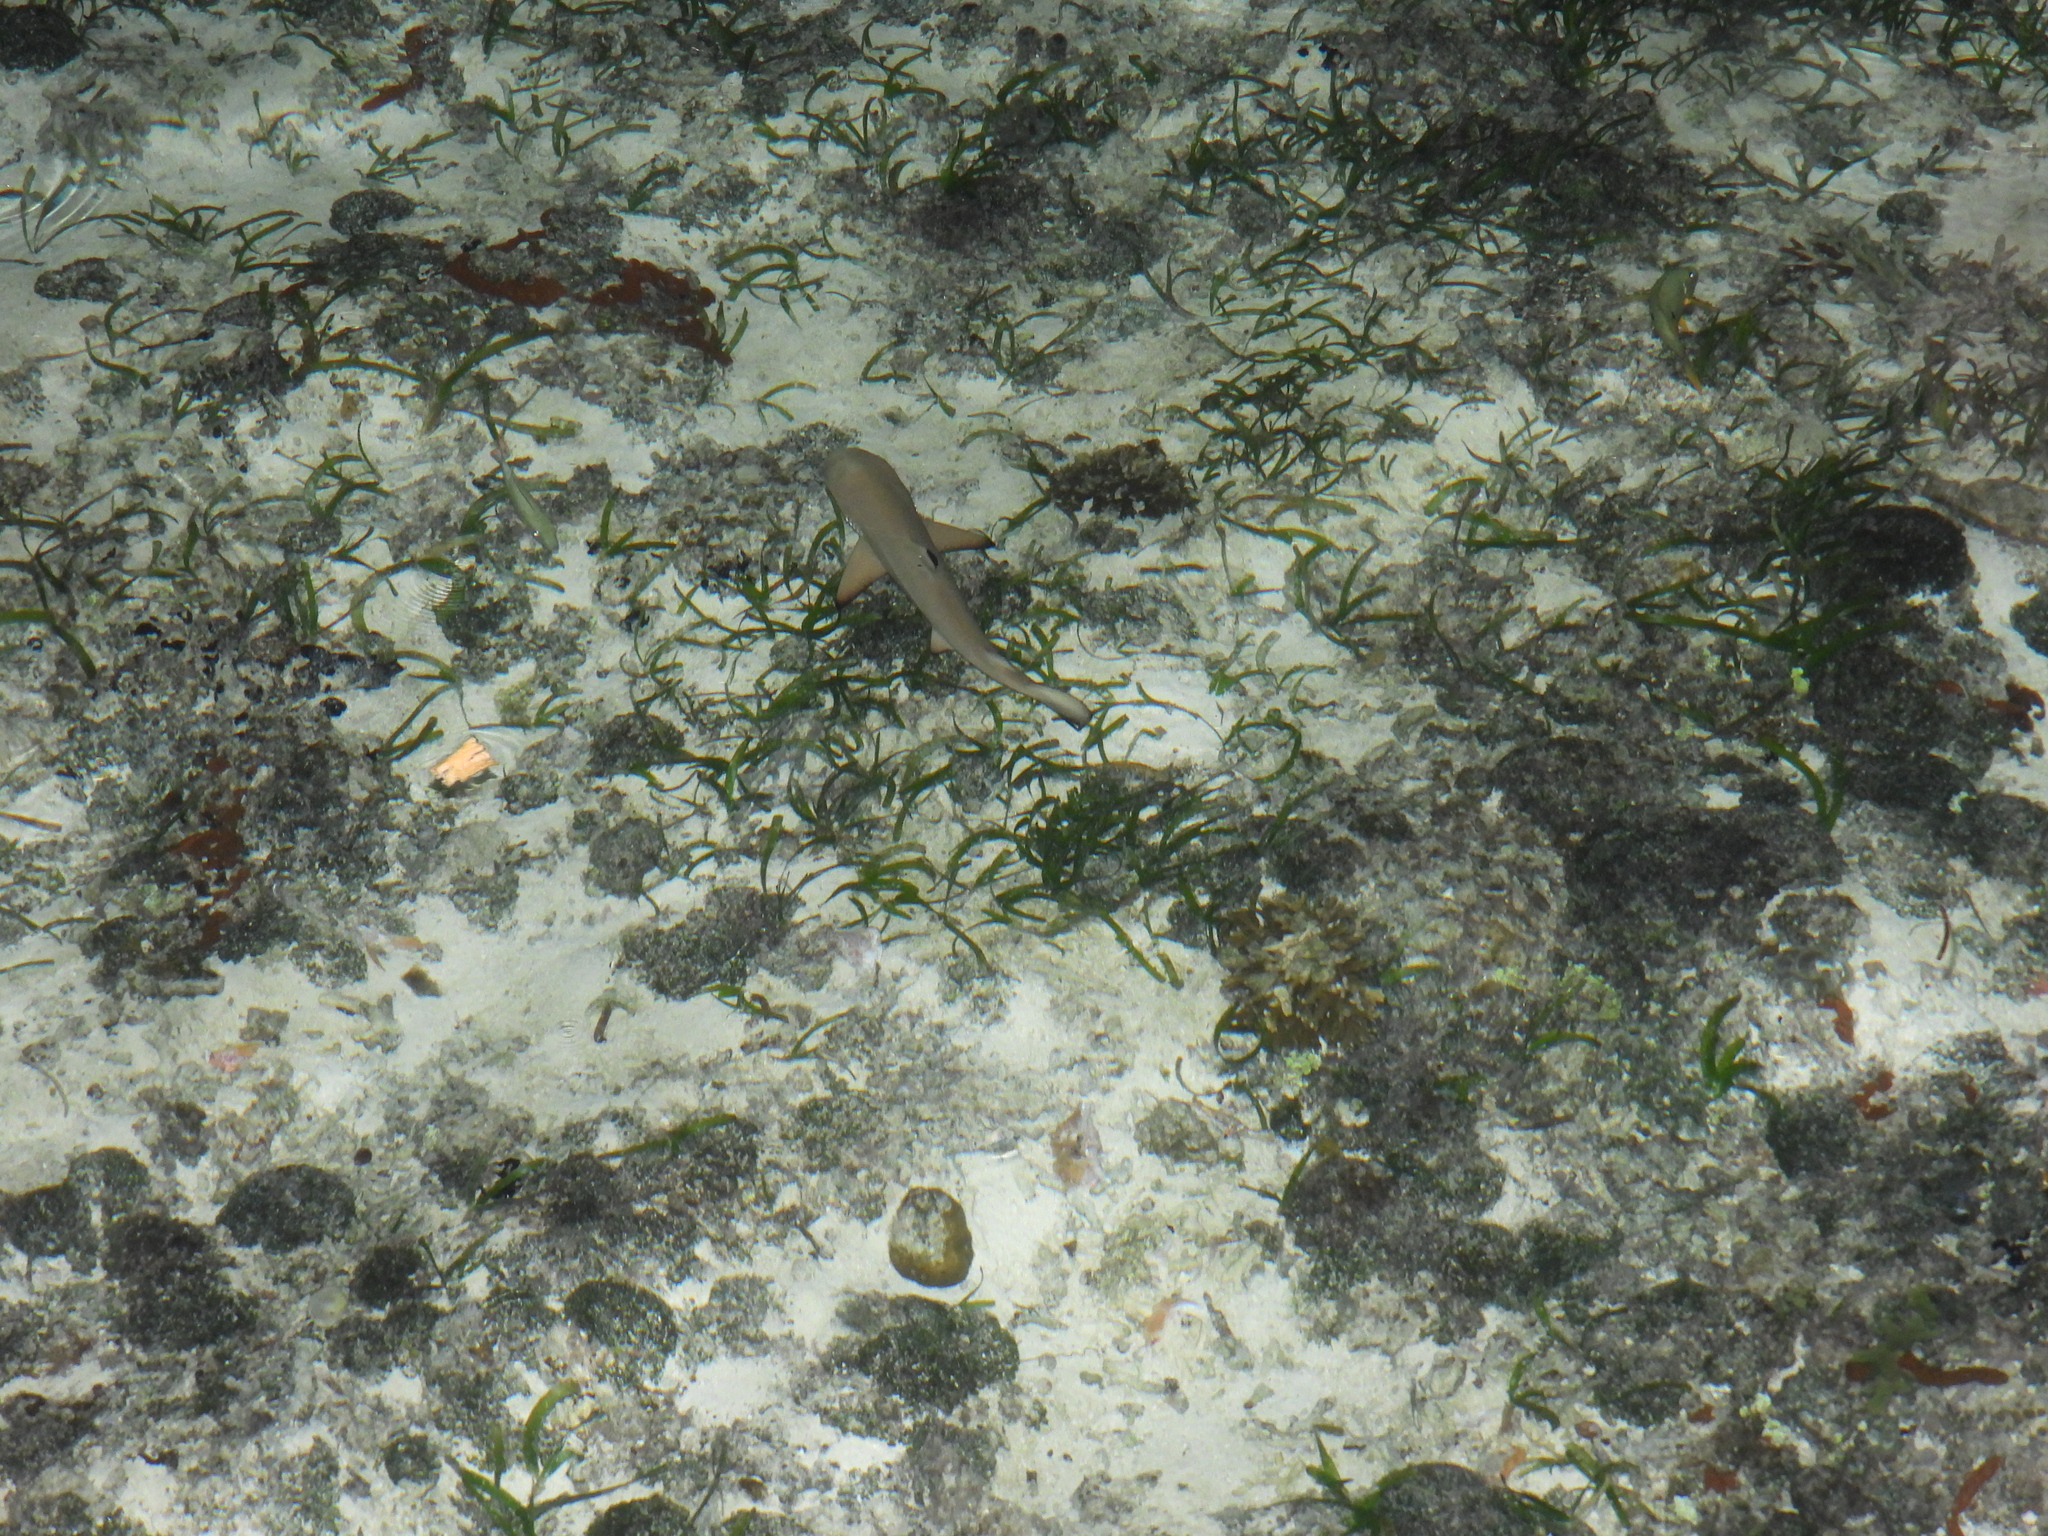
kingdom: Animalia
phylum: Chordata
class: Elasmobranchii
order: Carcharhiniformes
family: Carcharhinidae
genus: Carcharhinus
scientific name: Carcharhinus melanopterus
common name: Blacktip reef shark
